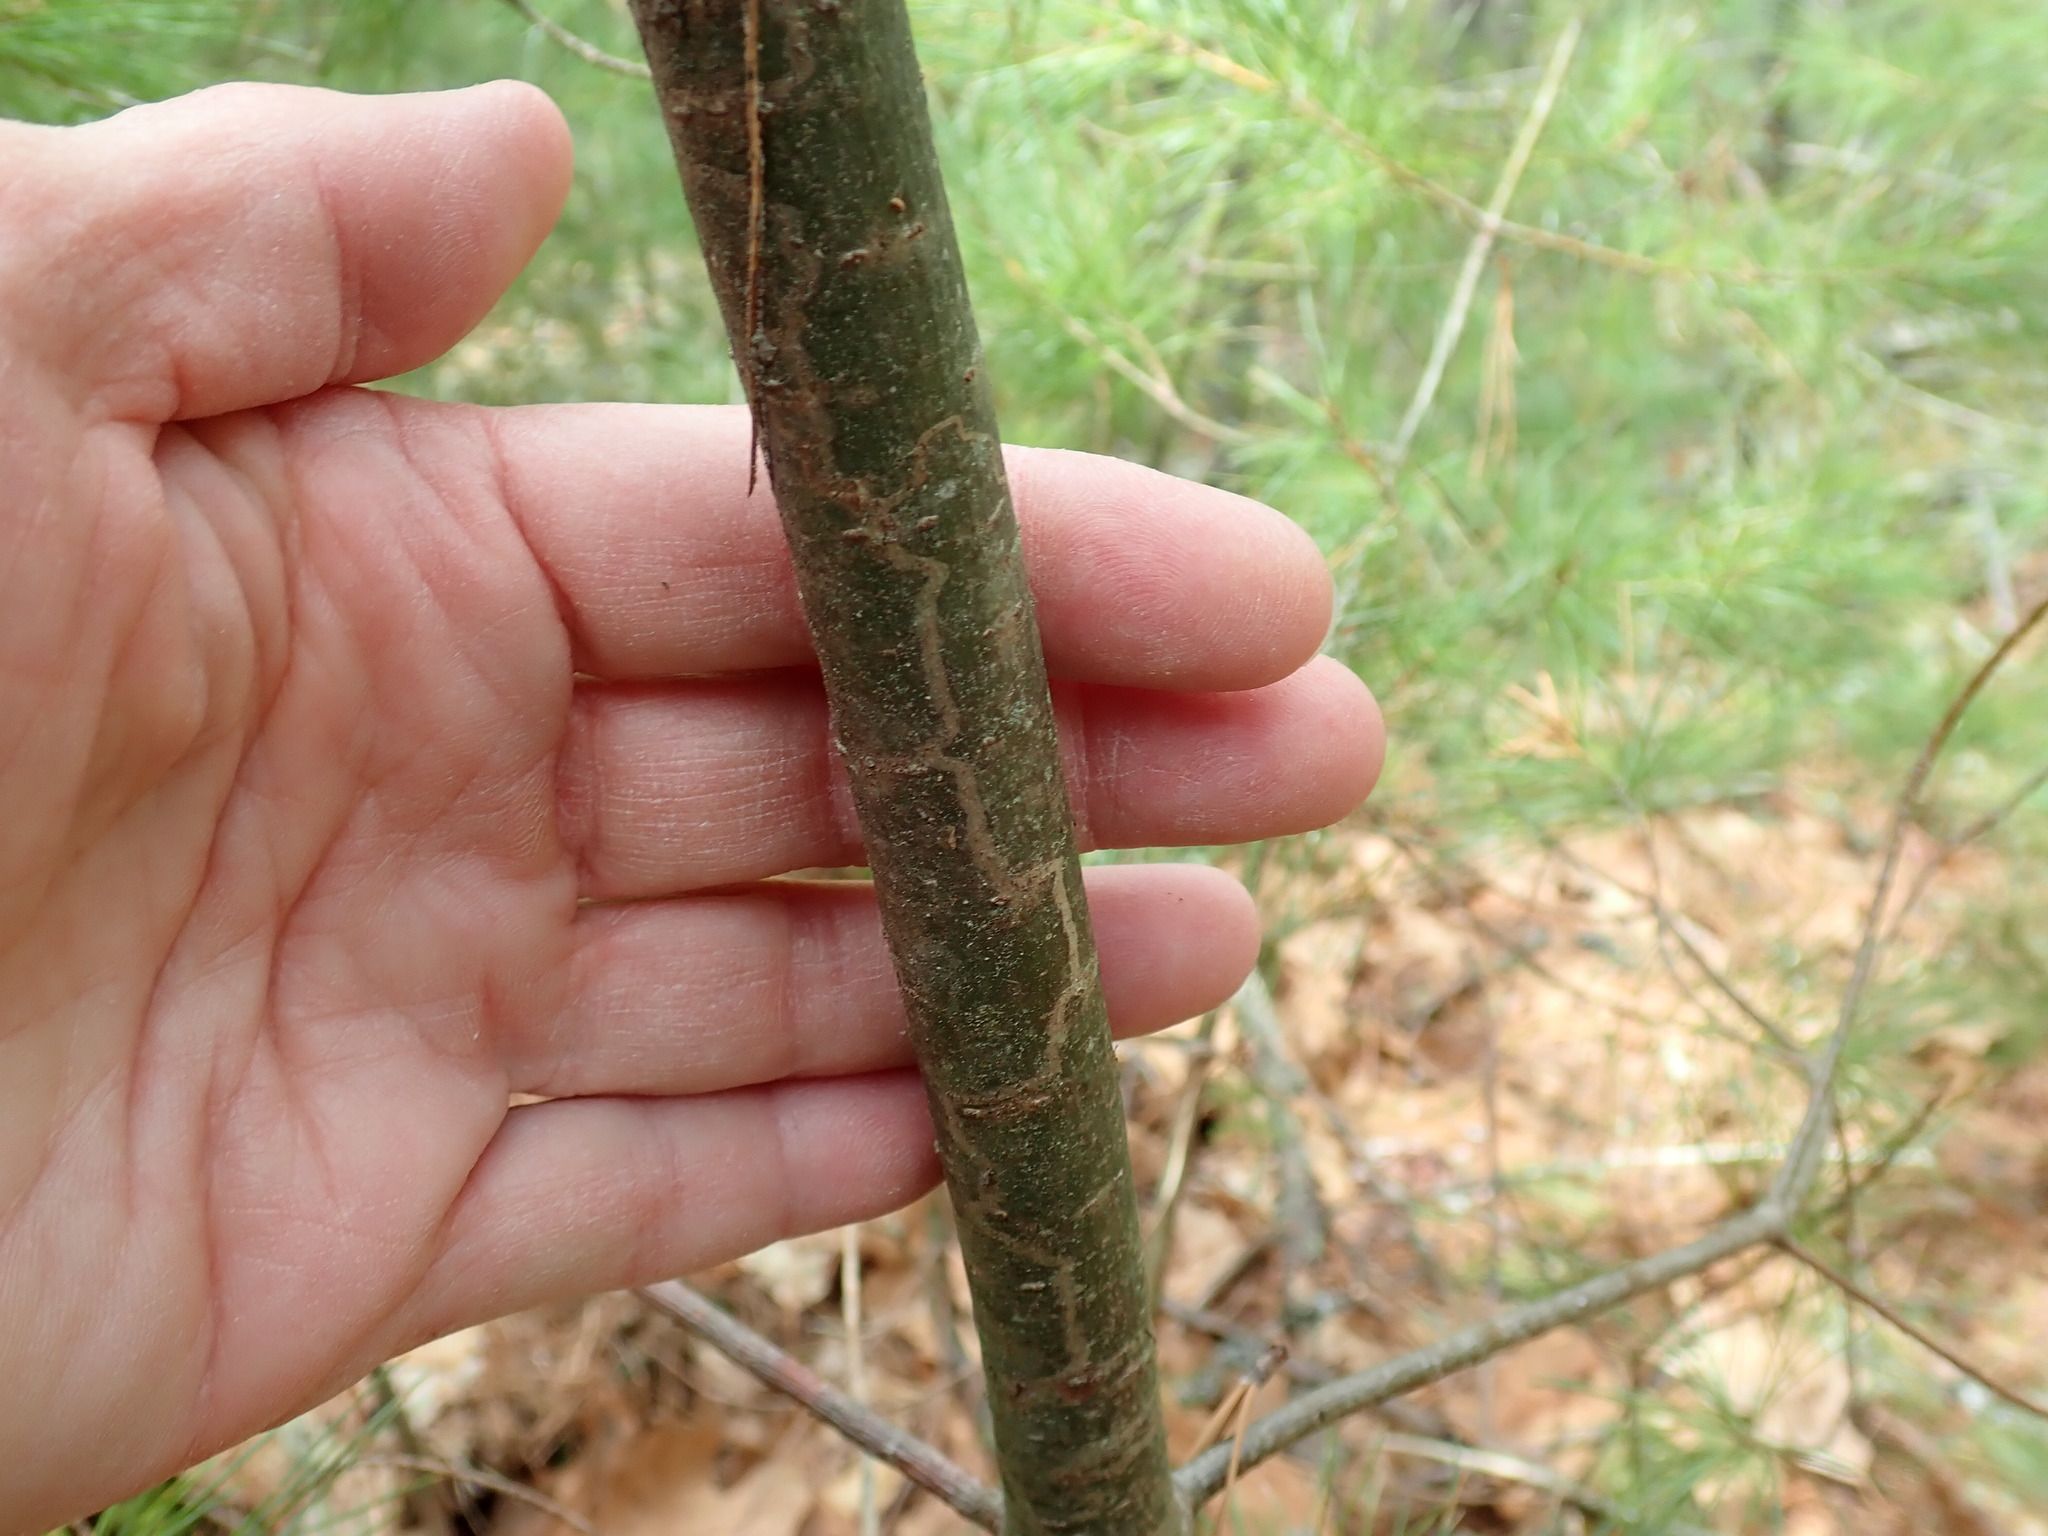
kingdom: Animalia
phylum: Arthropoda
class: Insecta
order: Lepidoptera
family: Gracillariidae
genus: Marmara
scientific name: Marmara fasciella
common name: White pine barkminer moth
